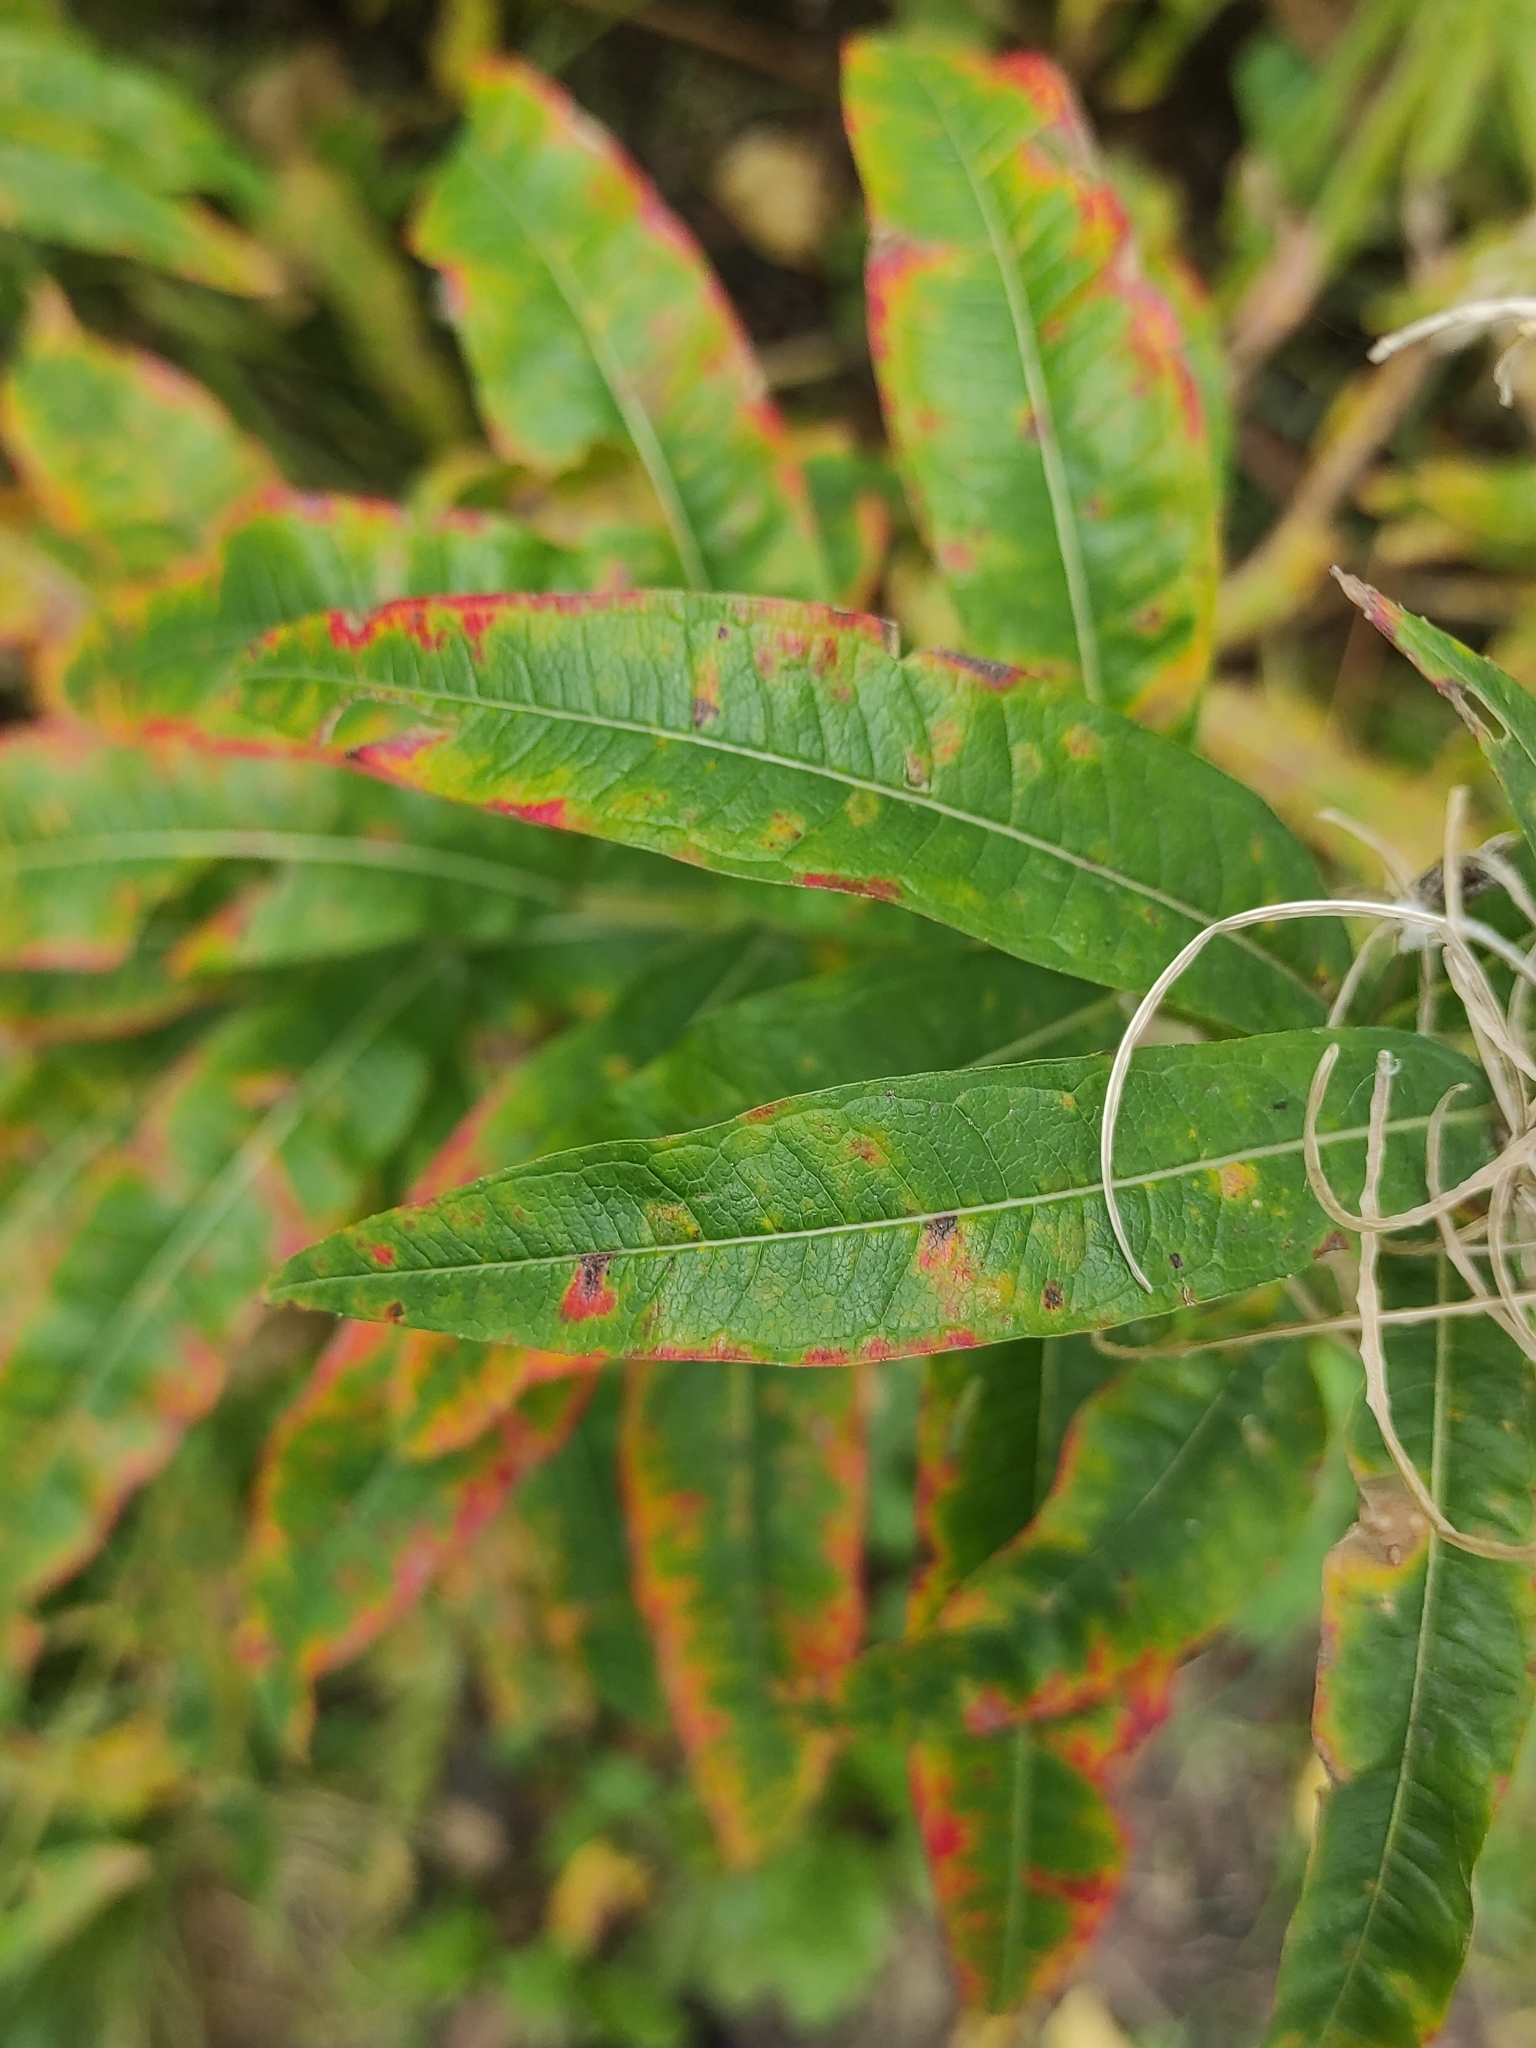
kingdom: Plantae
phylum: Tracheophyta
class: Magnoliopsida
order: Myrtales
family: Onagraceae
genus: Chamaenerion
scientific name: Chamaenerion angustifolium
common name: Fireweed
